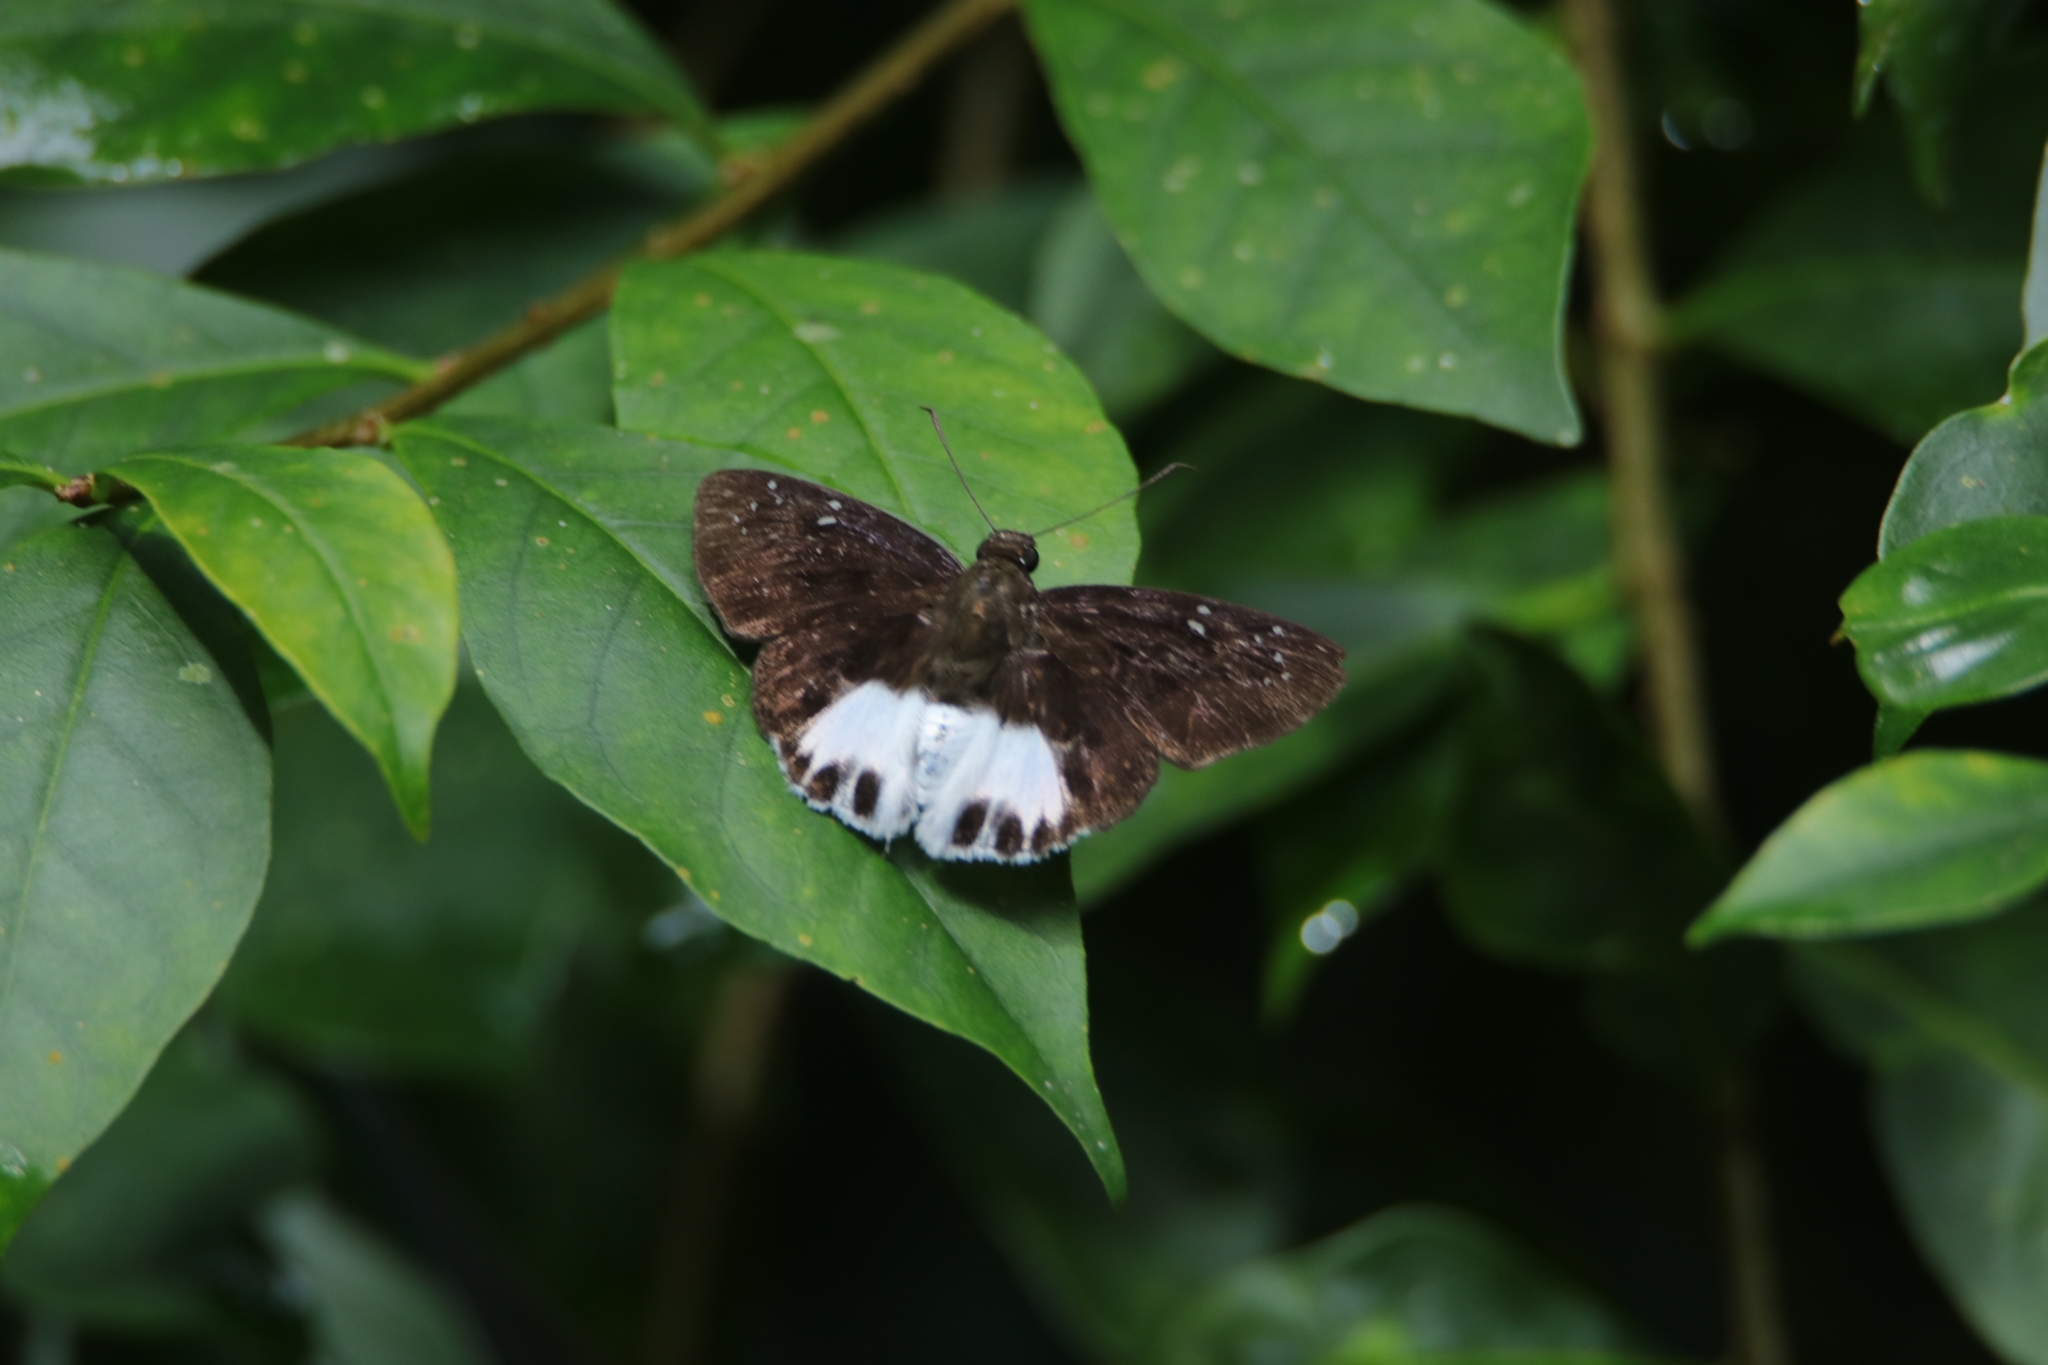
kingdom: Animalia
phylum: Arthropoda
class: Insecta
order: Lepidoptera
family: Hesperiidae
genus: Tagiades
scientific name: Tagiades litigiosa
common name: Water snow flat
